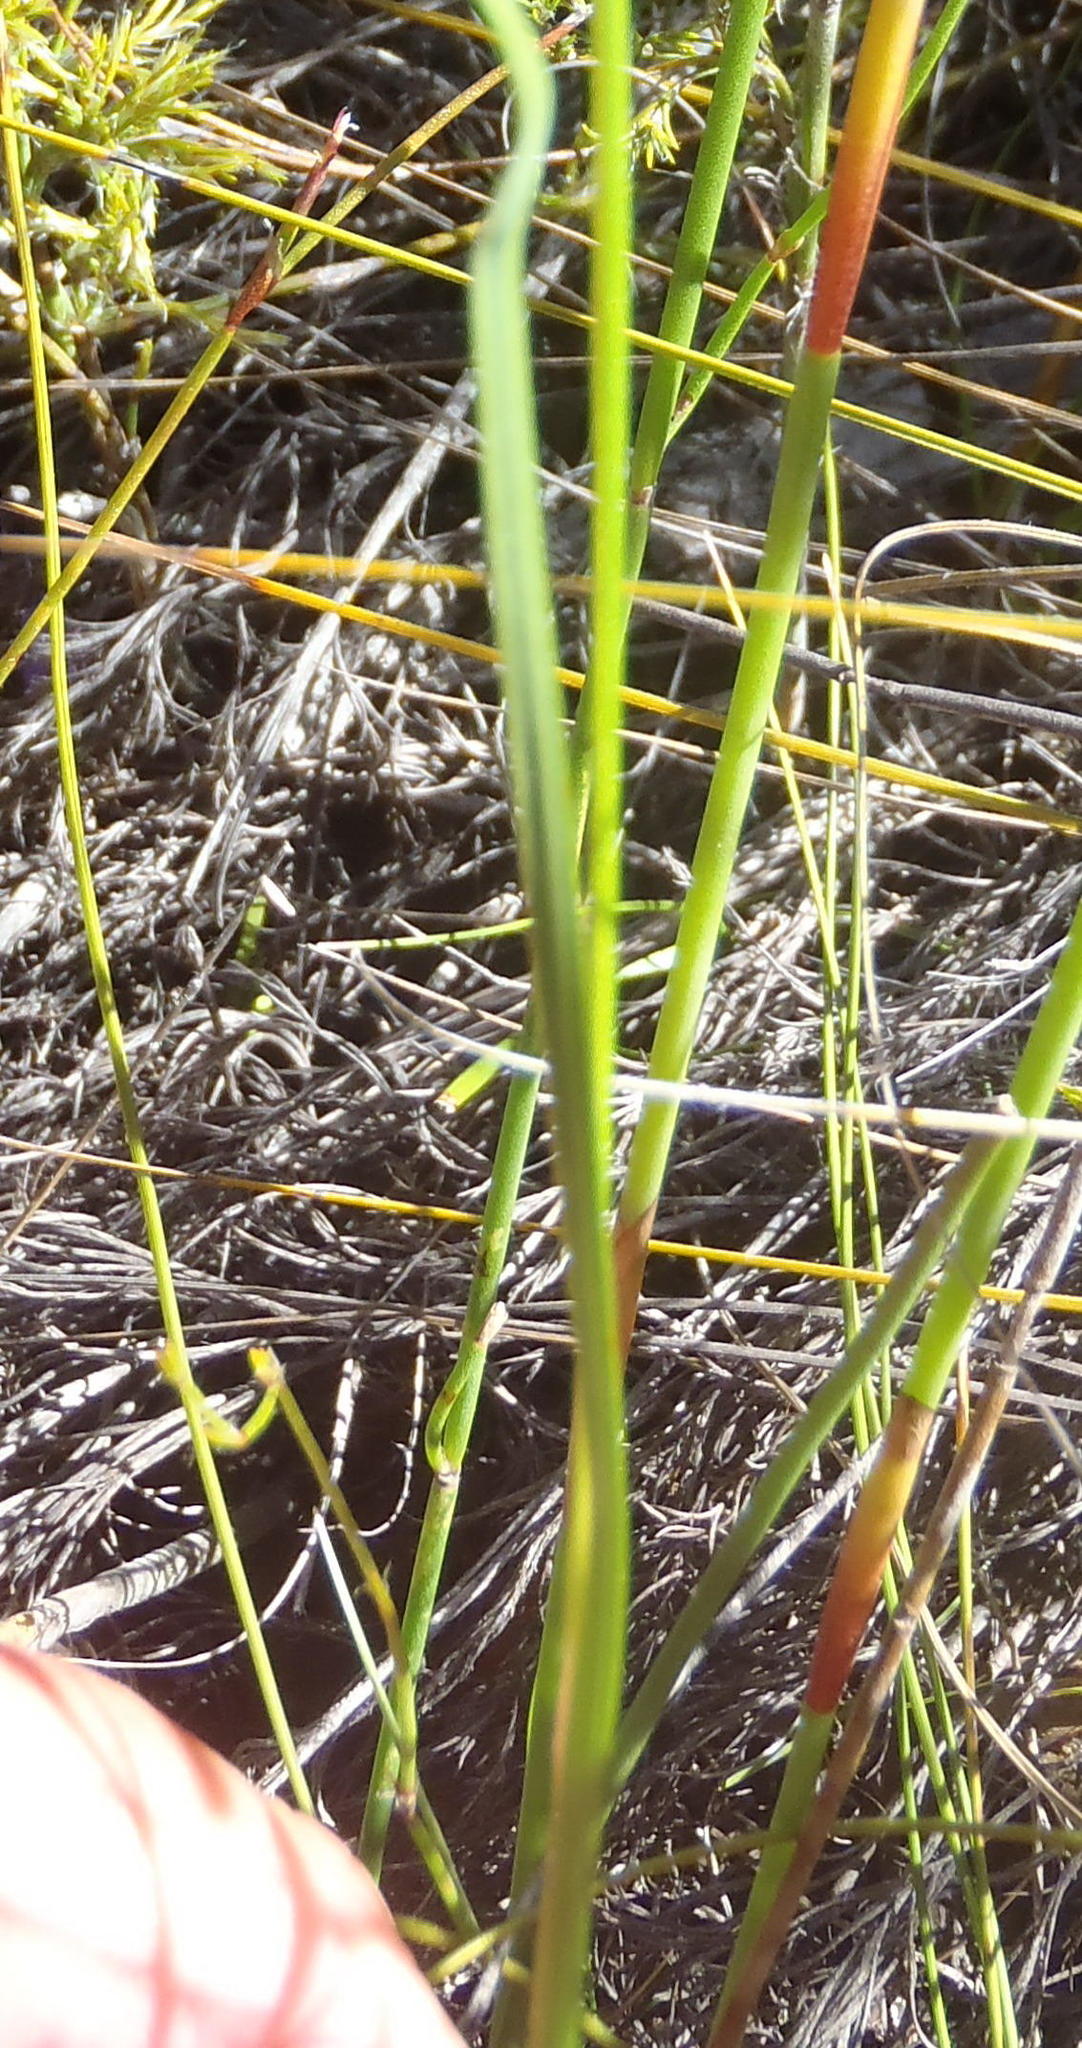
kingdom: Plantae
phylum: Tracheophyta
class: Liliopsida
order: Asparagales
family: Iridaceae
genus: Ixia
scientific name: Ixia confusa
